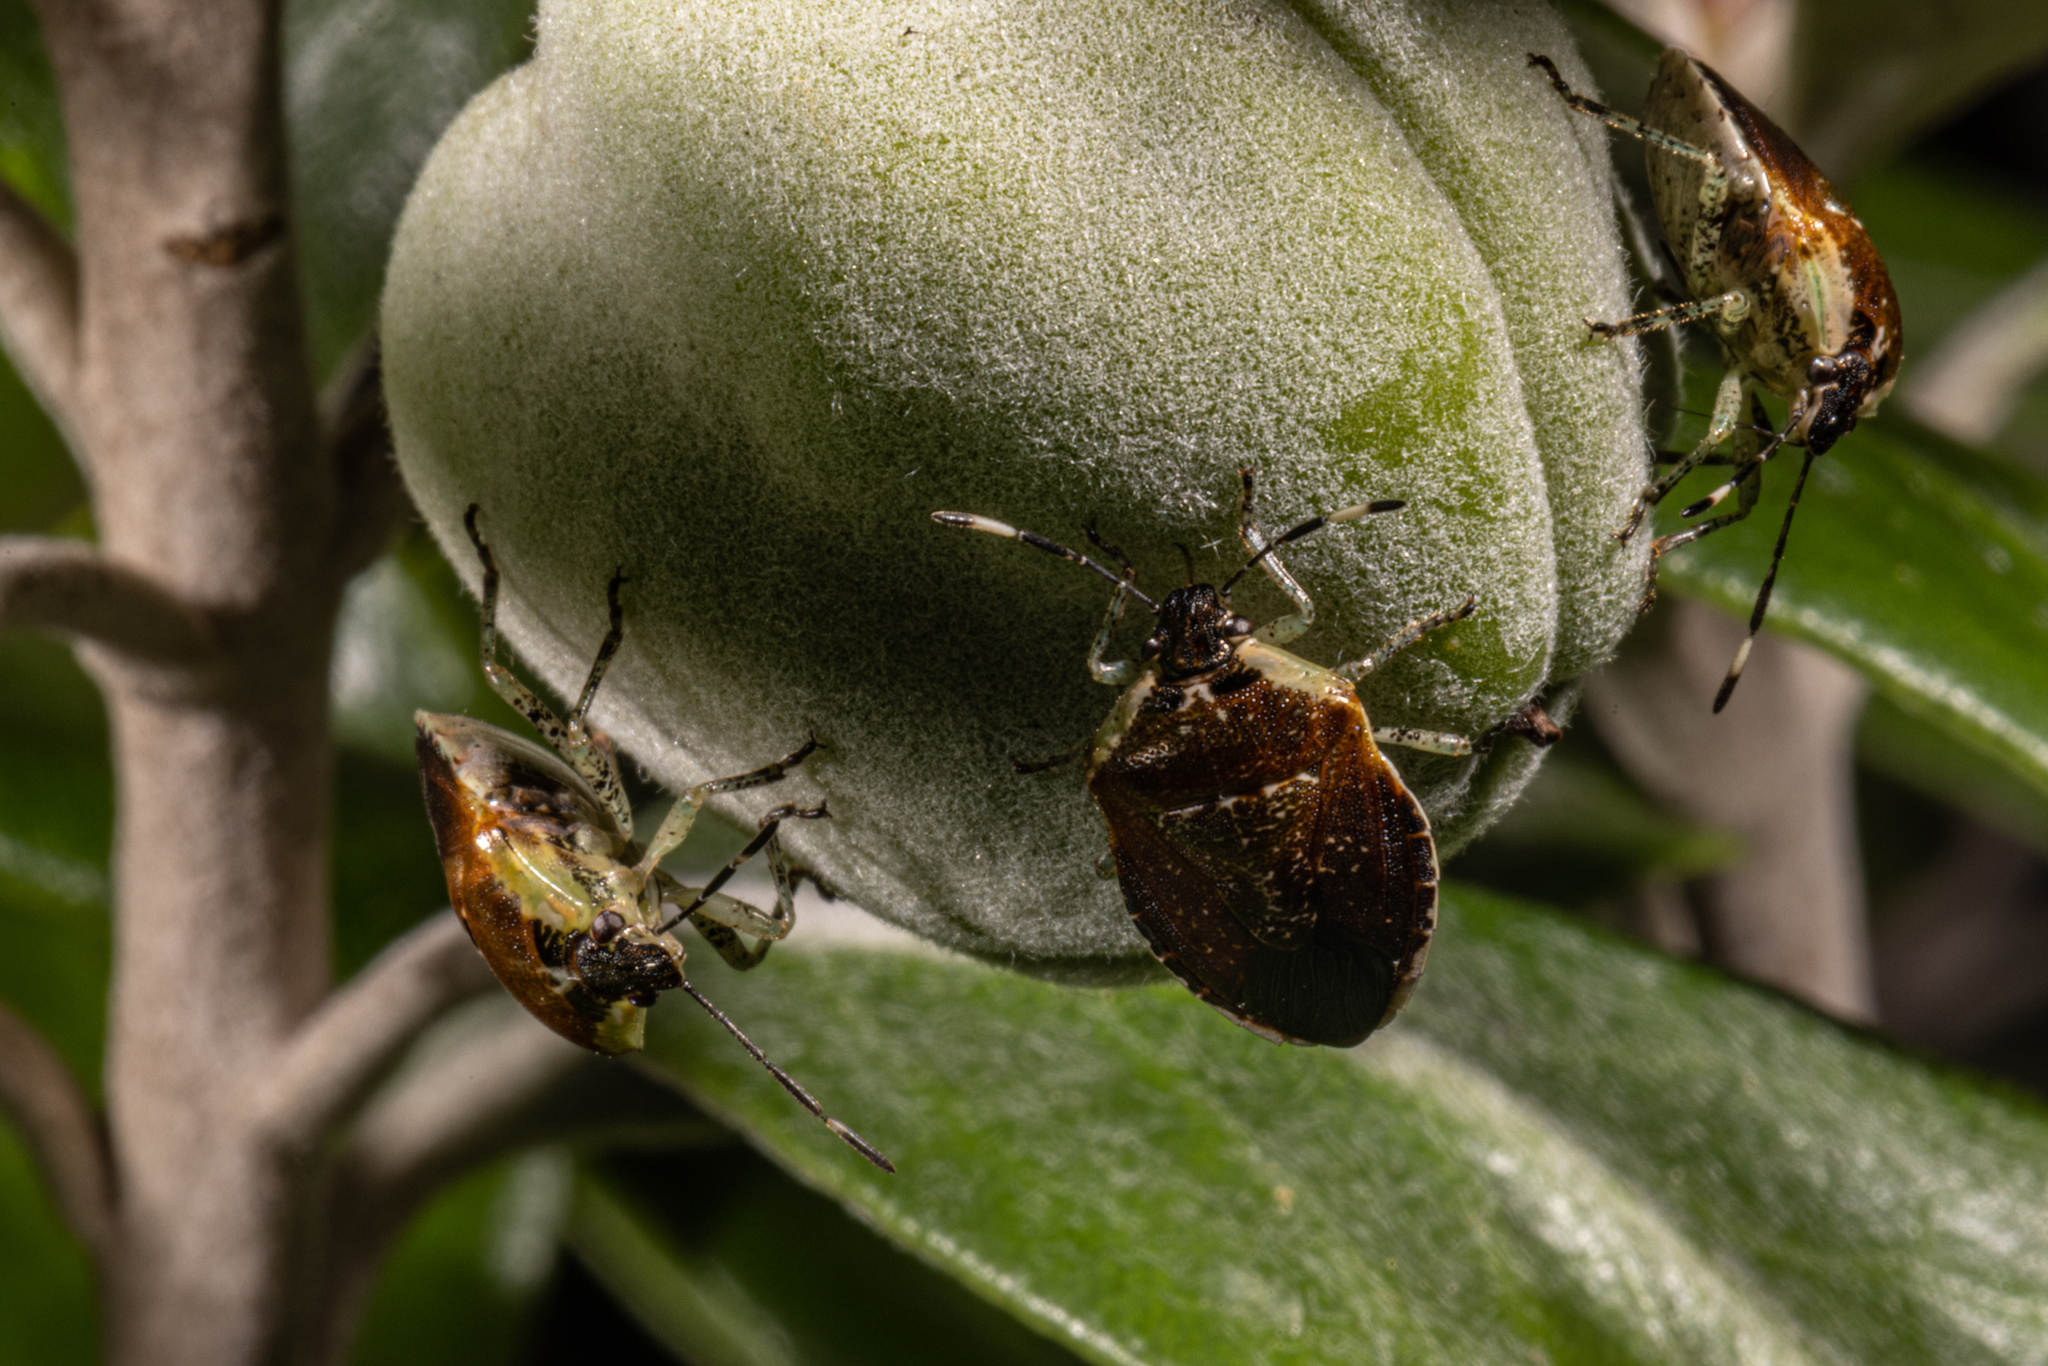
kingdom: Animalia
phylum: Arthropoda
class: Insecta
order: Hemiptera
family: Pentatomidae
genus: Monteithiella
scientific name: Monteithiella
